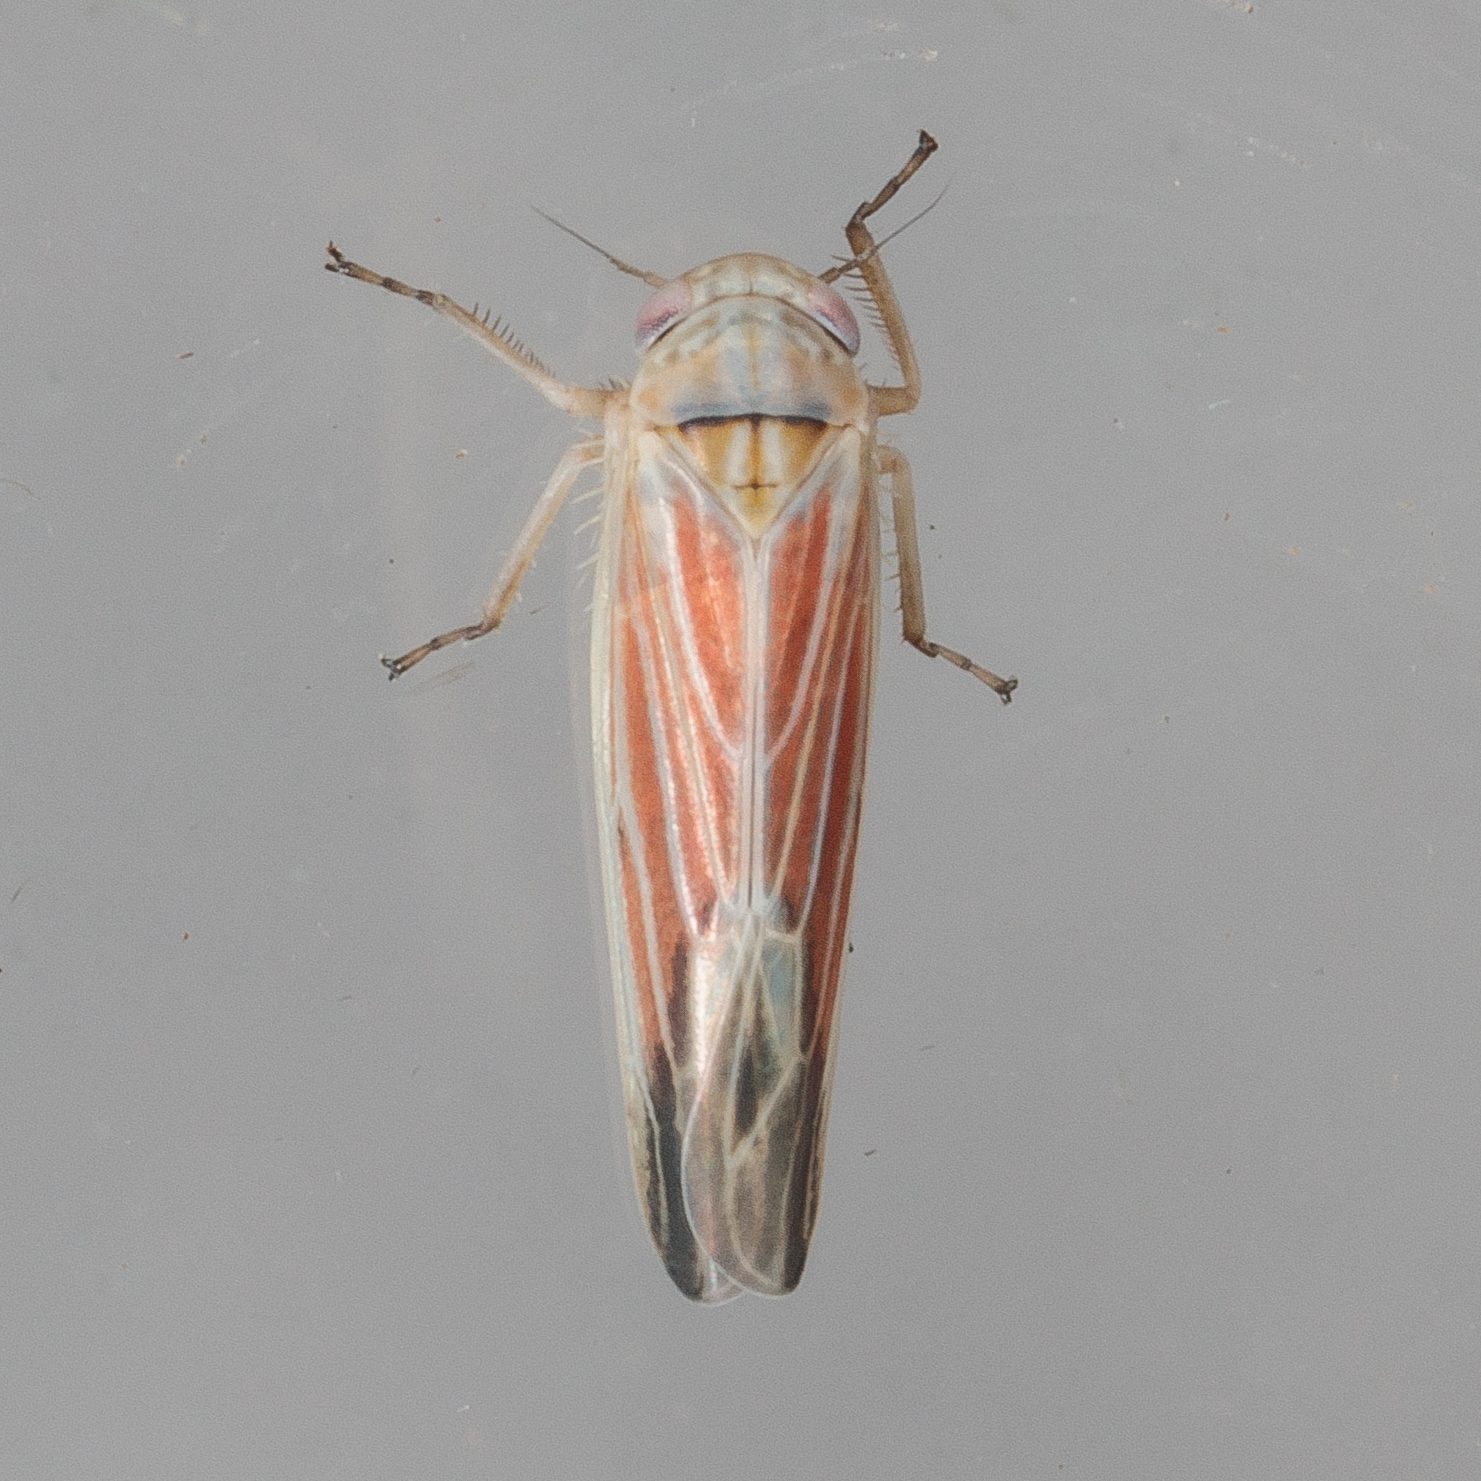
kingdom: Animalia
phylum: Arthropoda
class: Insecta
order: Hemiptera
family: Cicadellidae
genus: Balclutha
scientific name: Balclutha rubrostriata
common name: Red-streaked leafhopper
